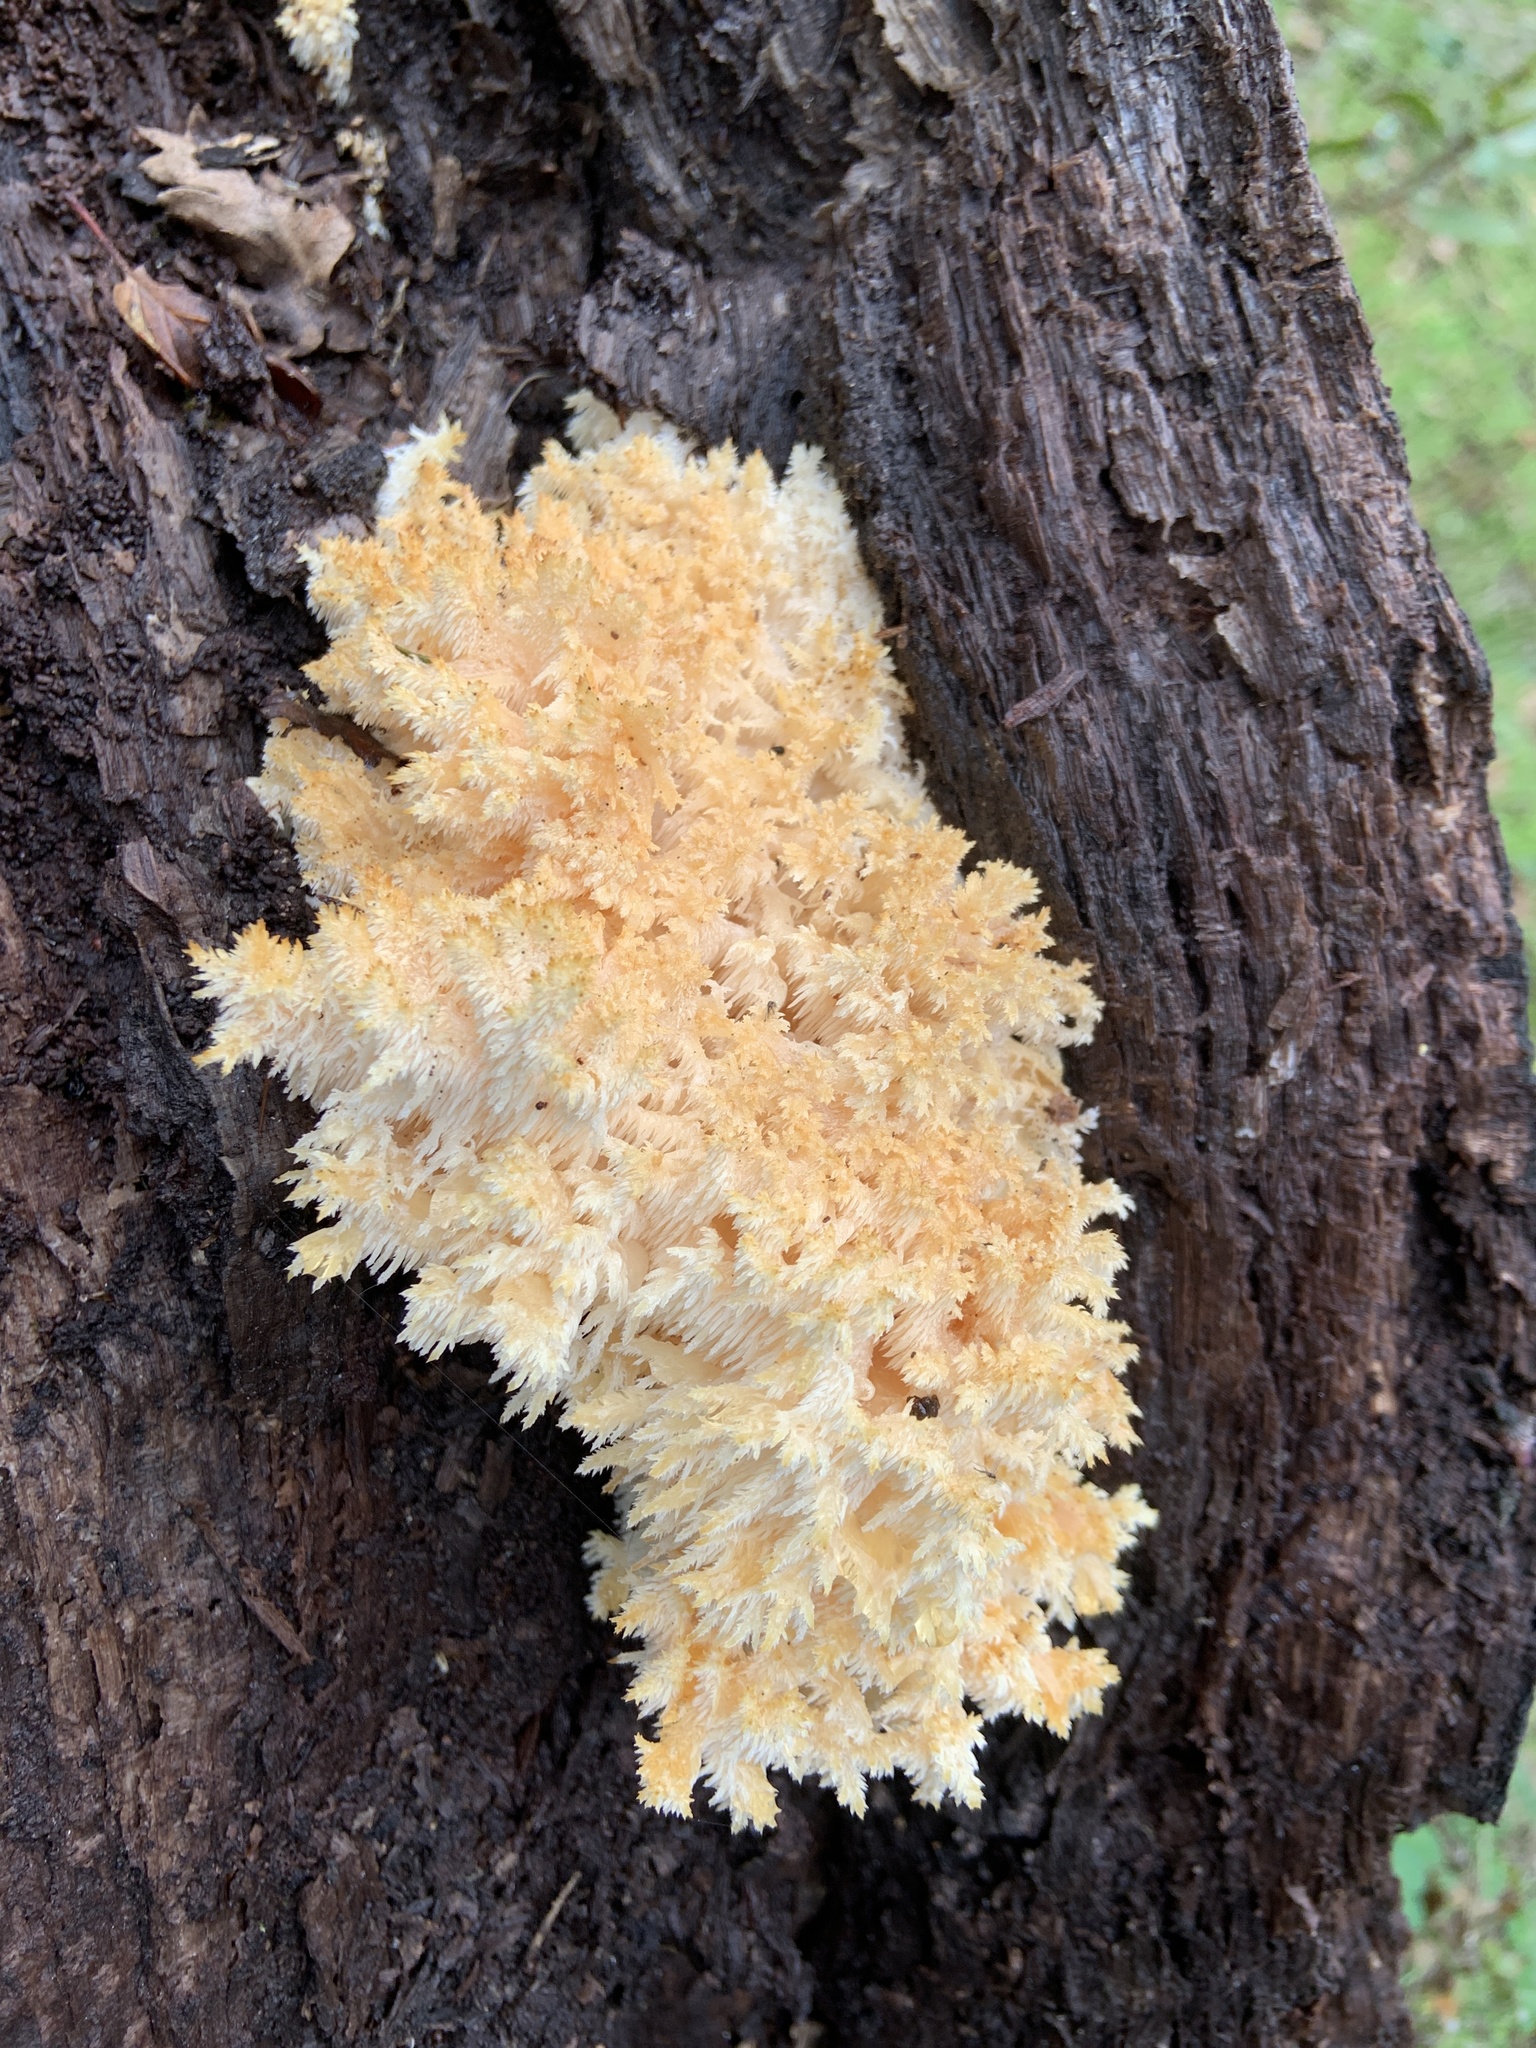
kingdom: Fungi
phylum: Basidiomycota
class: Agaricomycetes
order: Russulales
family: Hericiaceae
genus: Hericium
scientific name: Hericium coralloides
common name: Coral tooth
